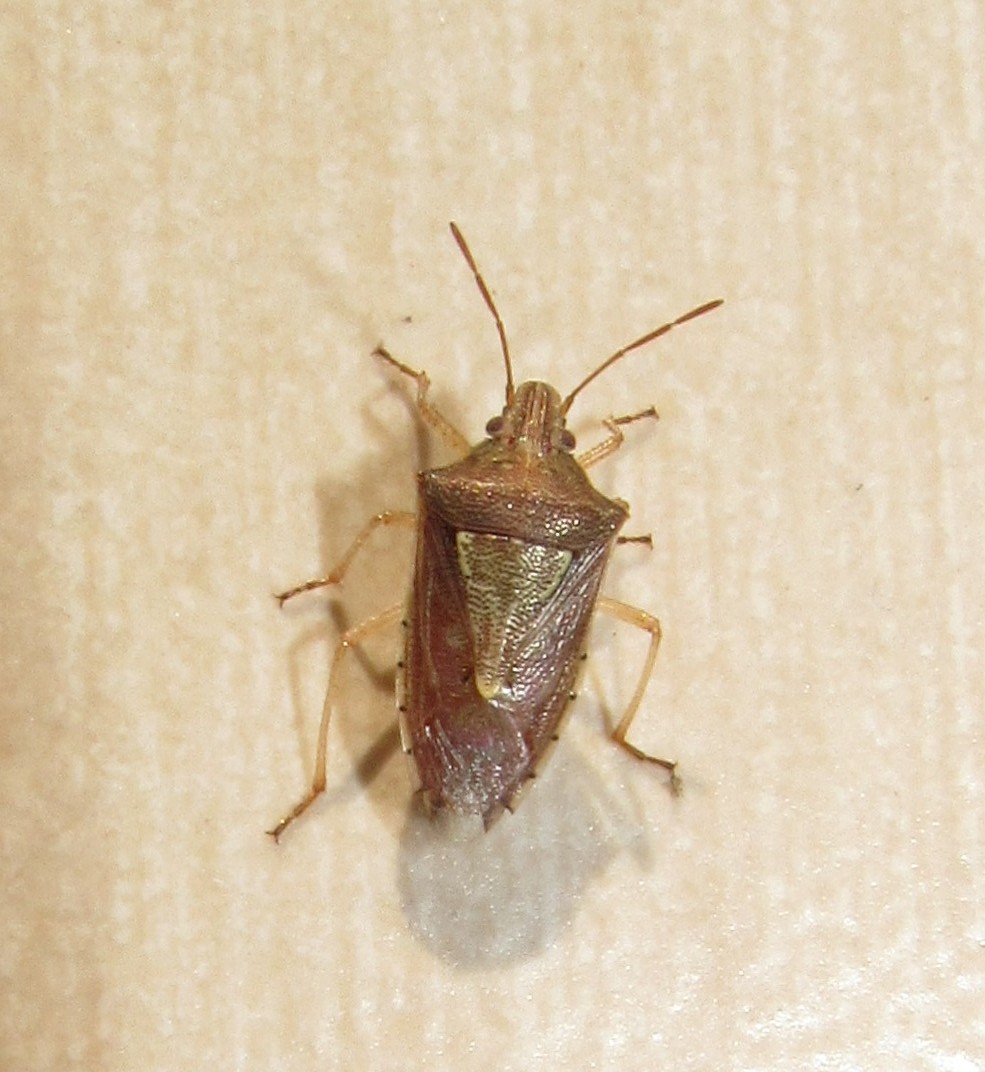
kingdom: Animalia
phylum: Arthropoda
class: Insecta
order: Hemiptera
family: Pentatomidae
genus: Oebalus
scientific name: Oebalus ypsilongriseus
